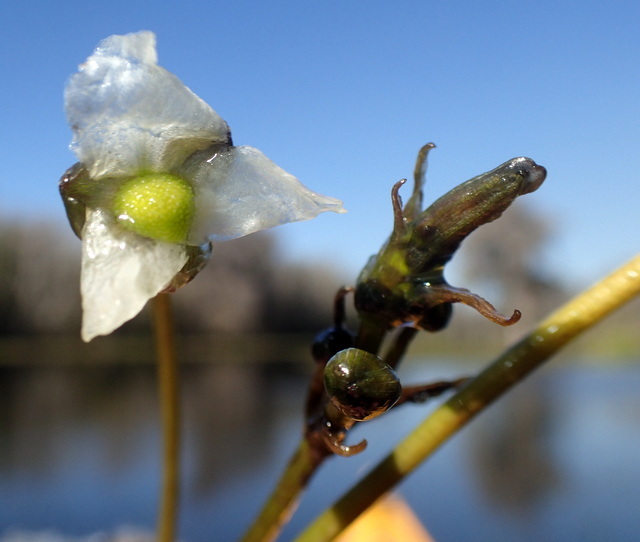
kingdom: Plantae
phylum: Tracheophyta
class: Liliopsida
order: Alismatales
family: Alismataceae
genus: Sagittaria
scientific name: Sagittaria kurziana
